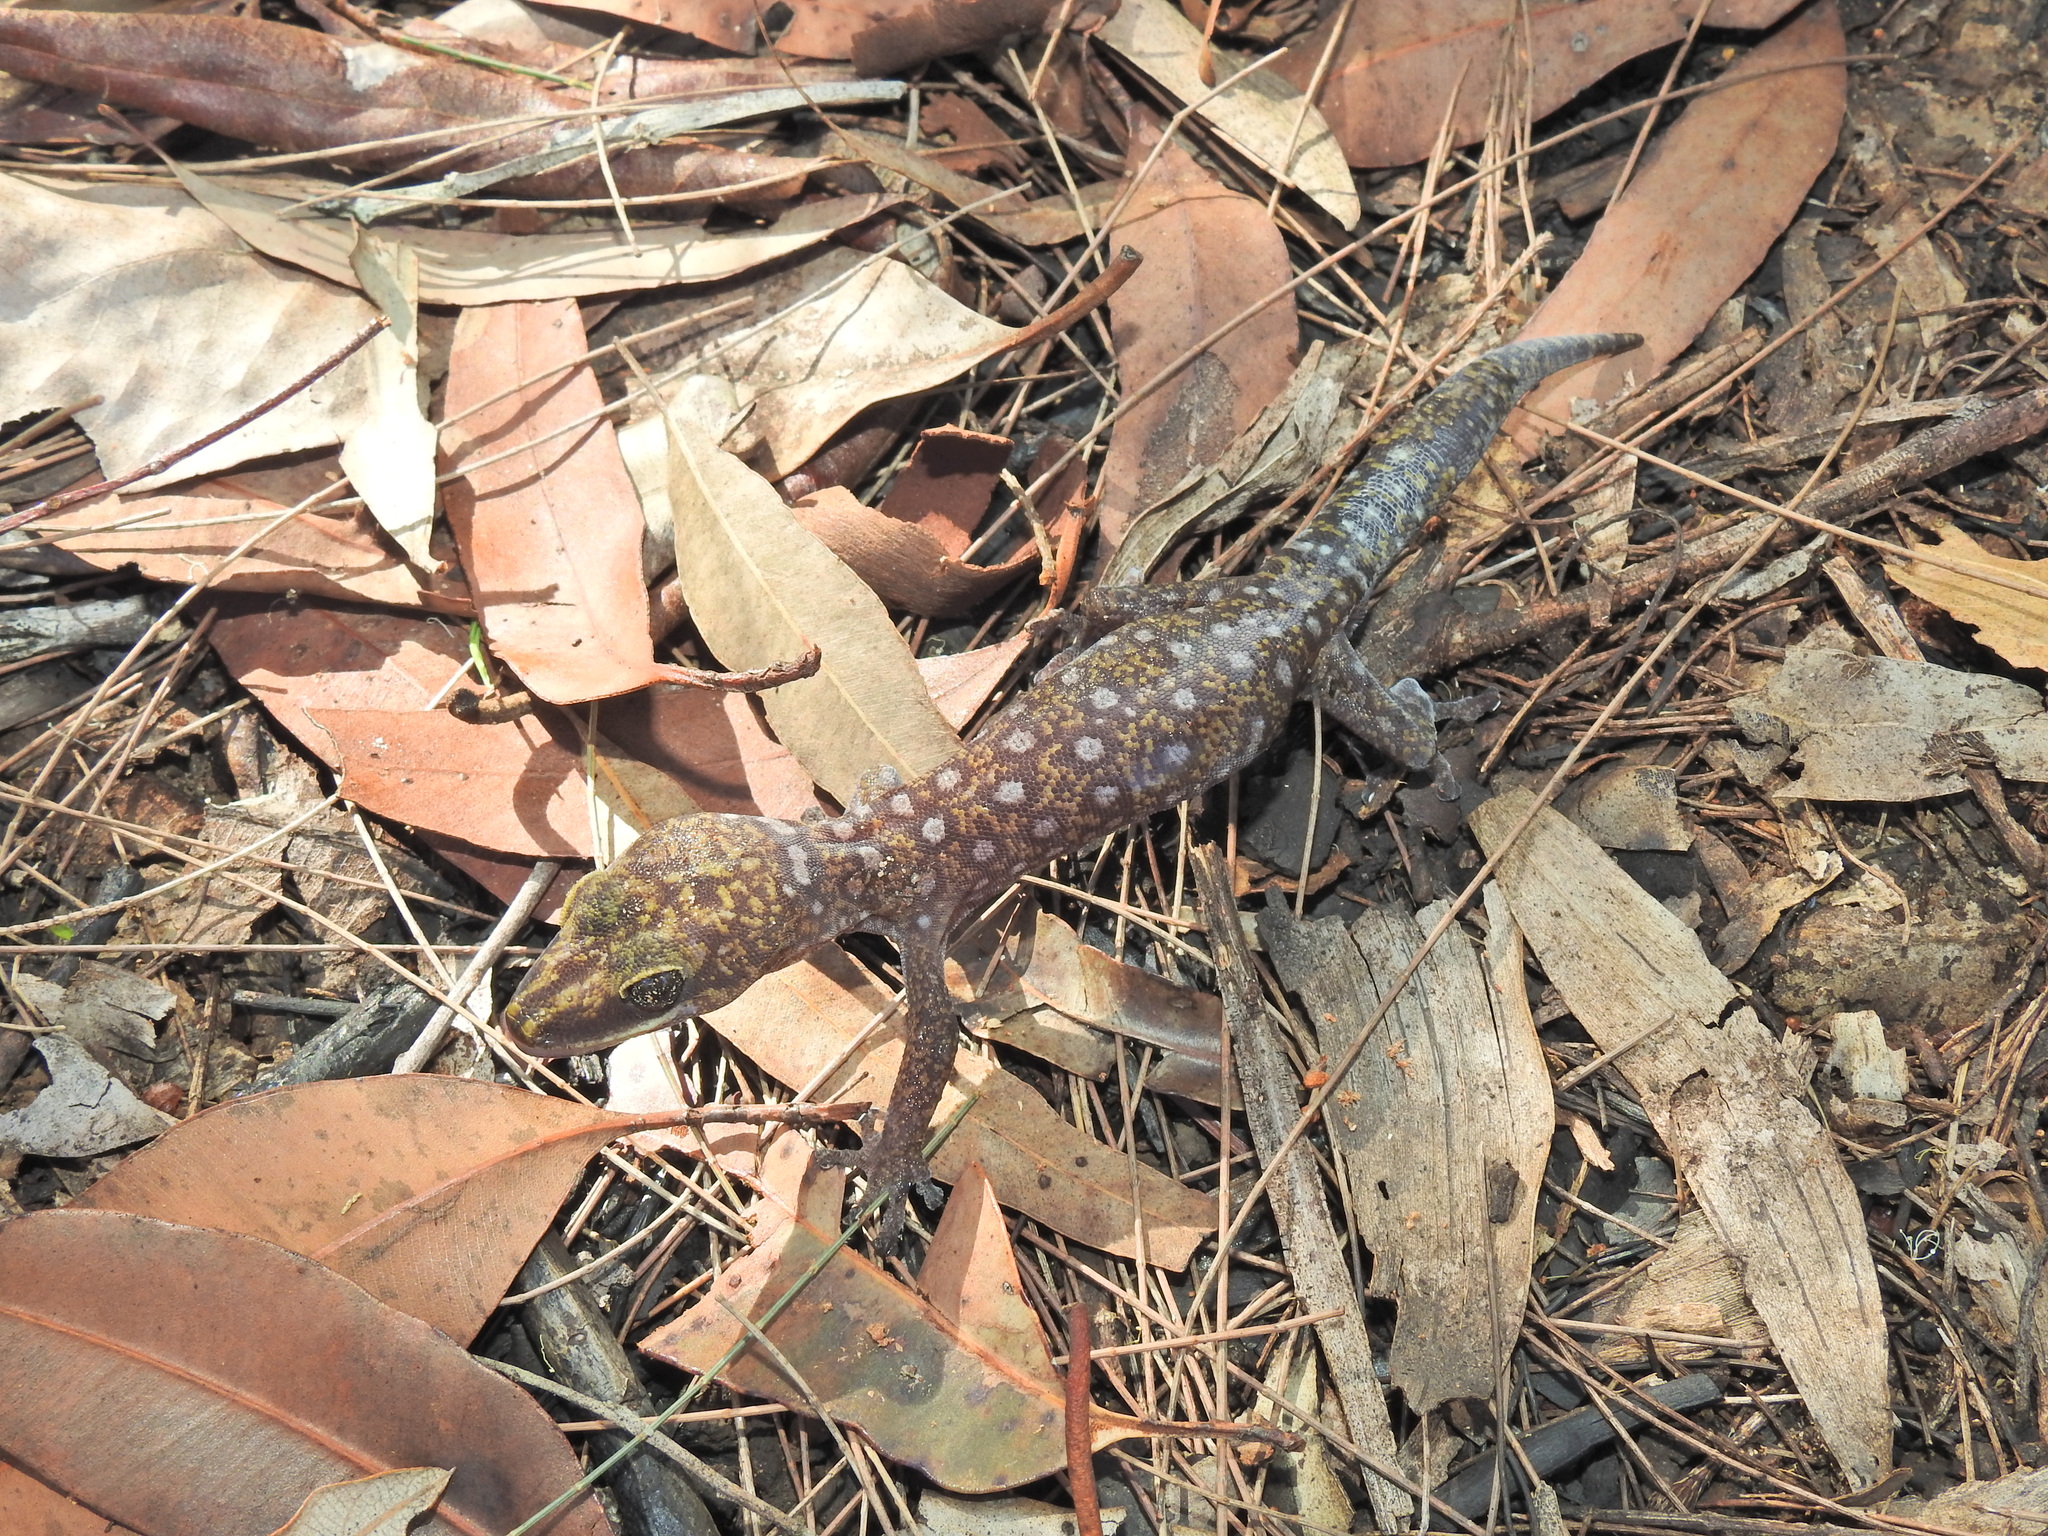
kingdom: Animalia
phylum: Chordata
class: Squamata
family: Diplodactylidae
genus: Oedura
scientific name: Oedura tryoni
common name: Southern spotted velvet gecko
